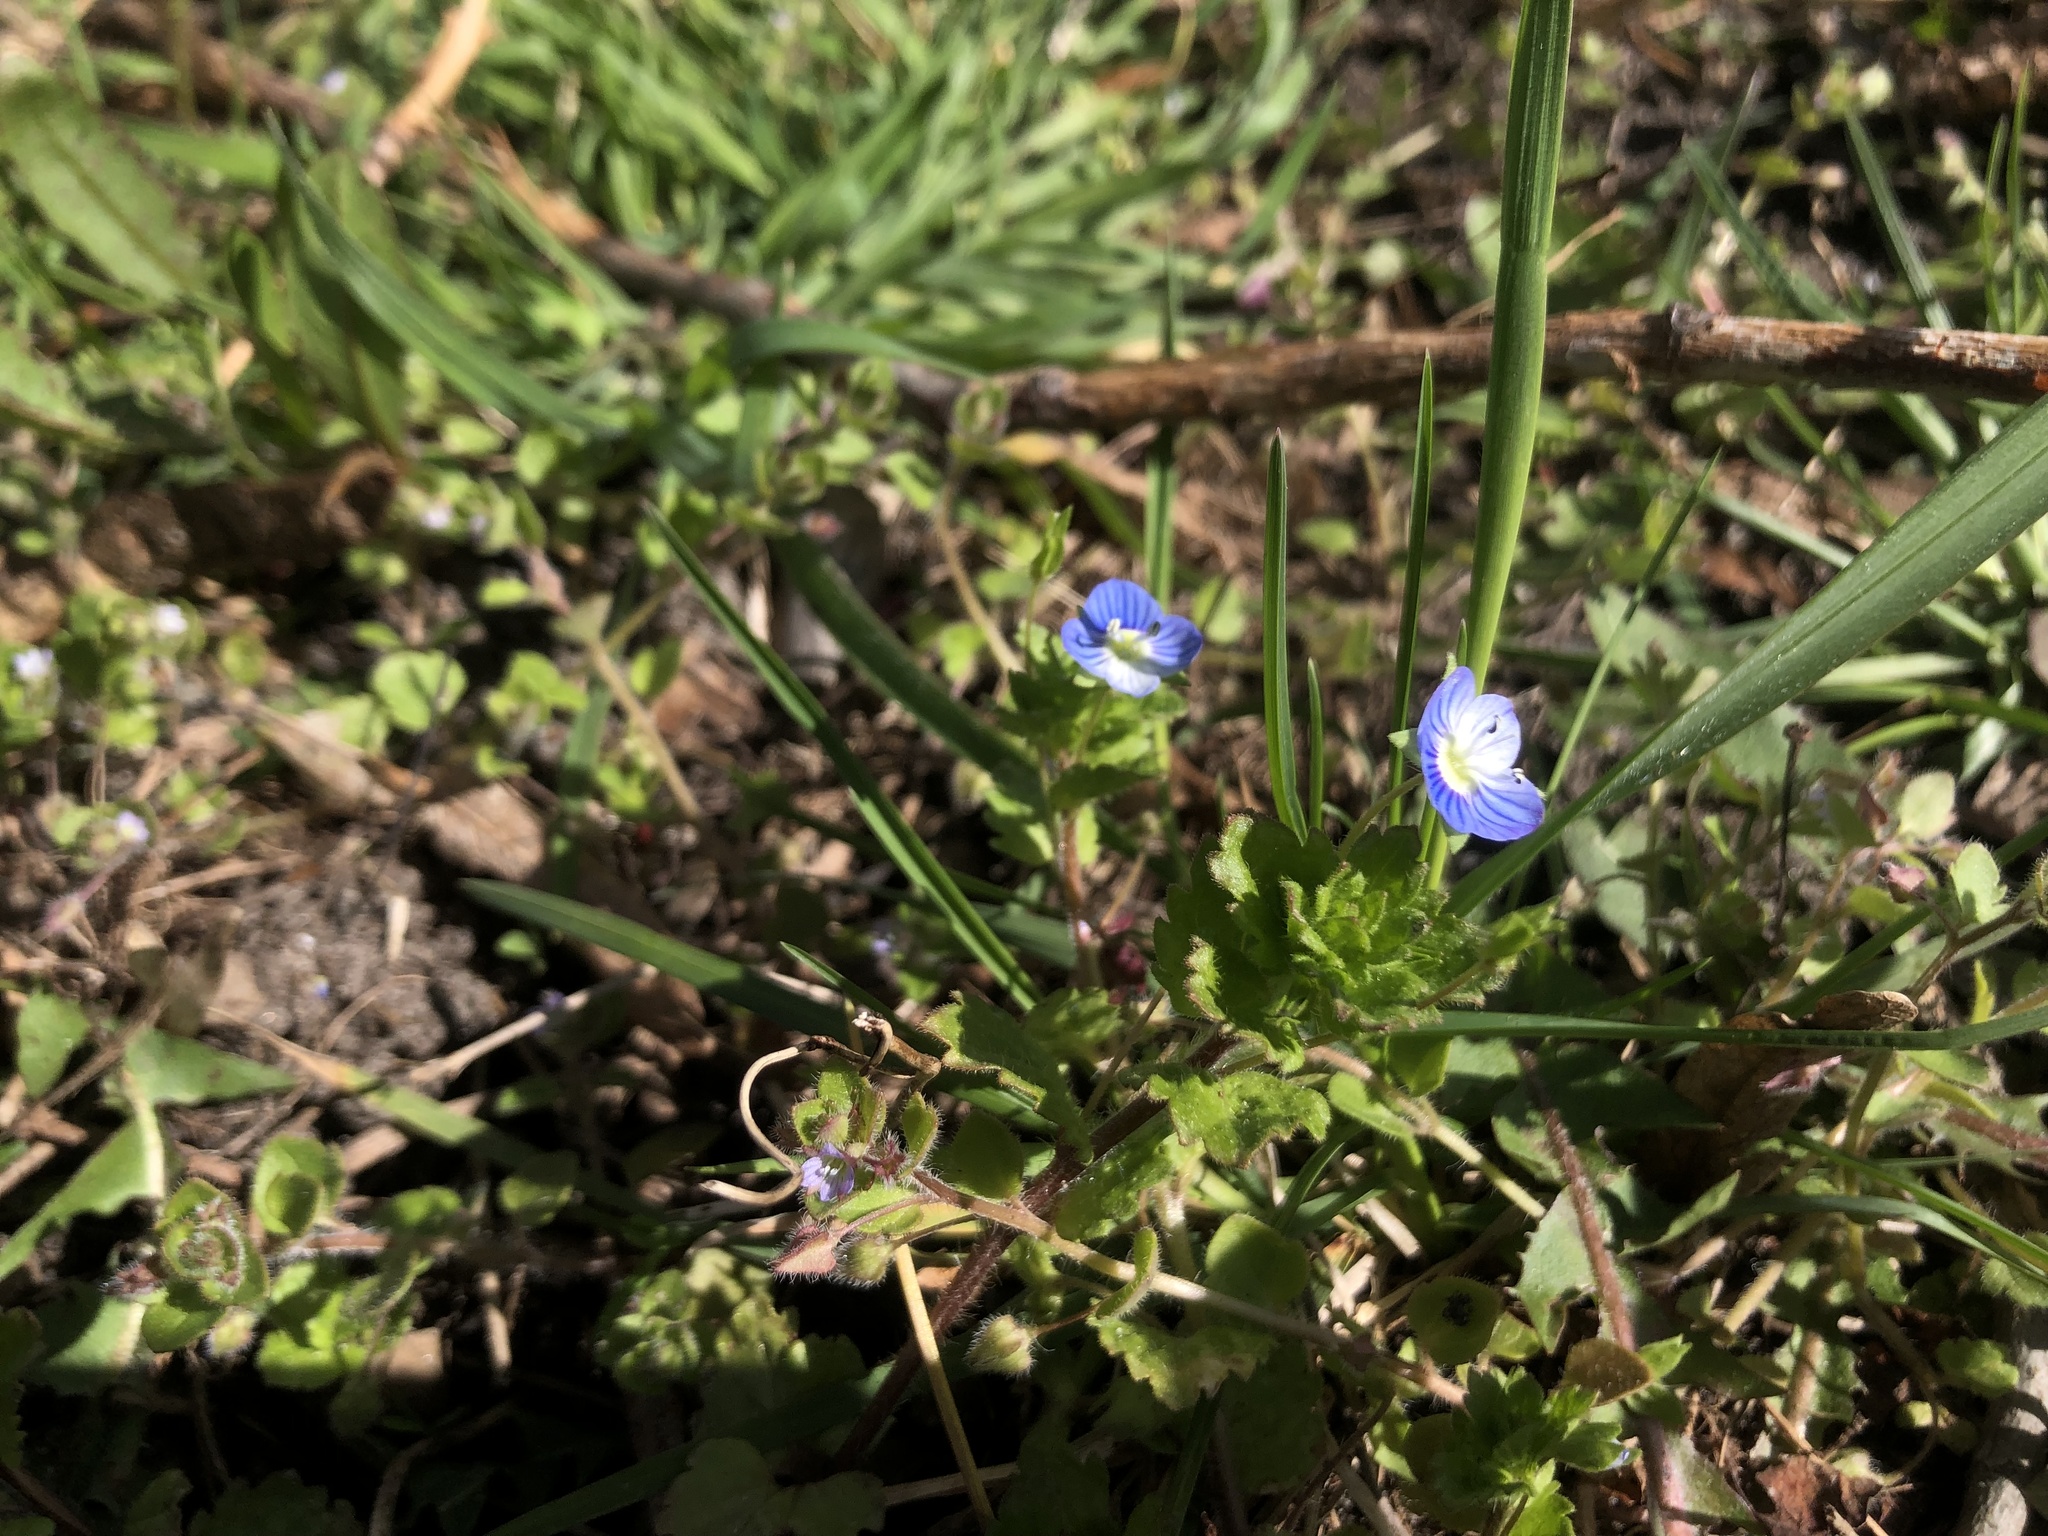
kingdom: Plantae
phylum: Tracheophyta
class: Magnoliopsida
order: Lamiales
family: Plantaginaceae
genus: Veronica
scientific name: Veronica persica
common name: Common field-speedwell
